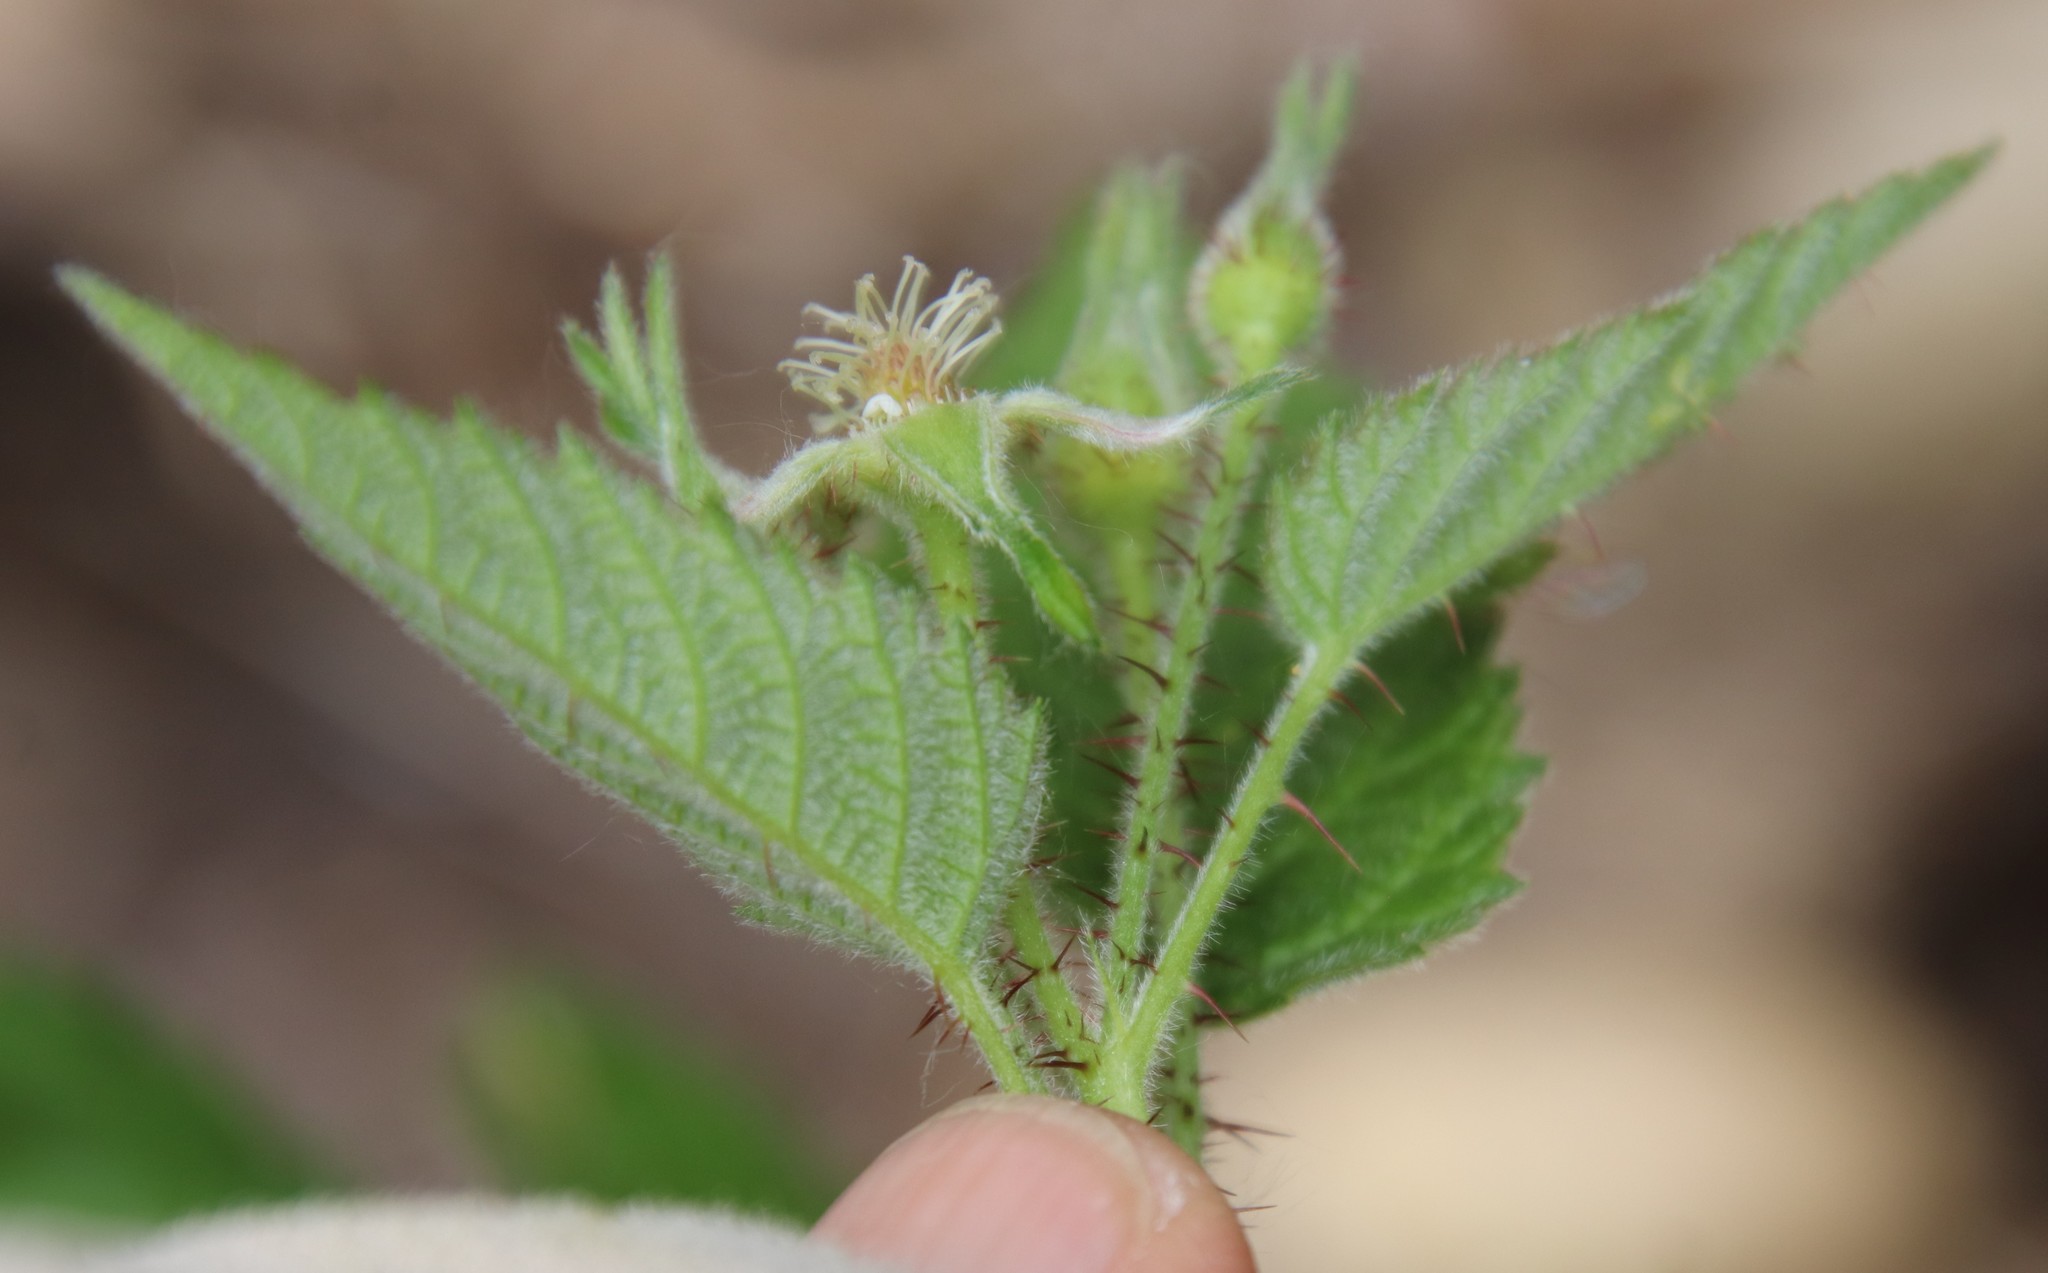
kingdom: Plantae
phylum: Tracheophyta
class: Magnoliopsida
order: Rosales
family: Rosaceae
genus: Rubus
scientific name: Rubus ursinus
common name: Pacific blackberry
